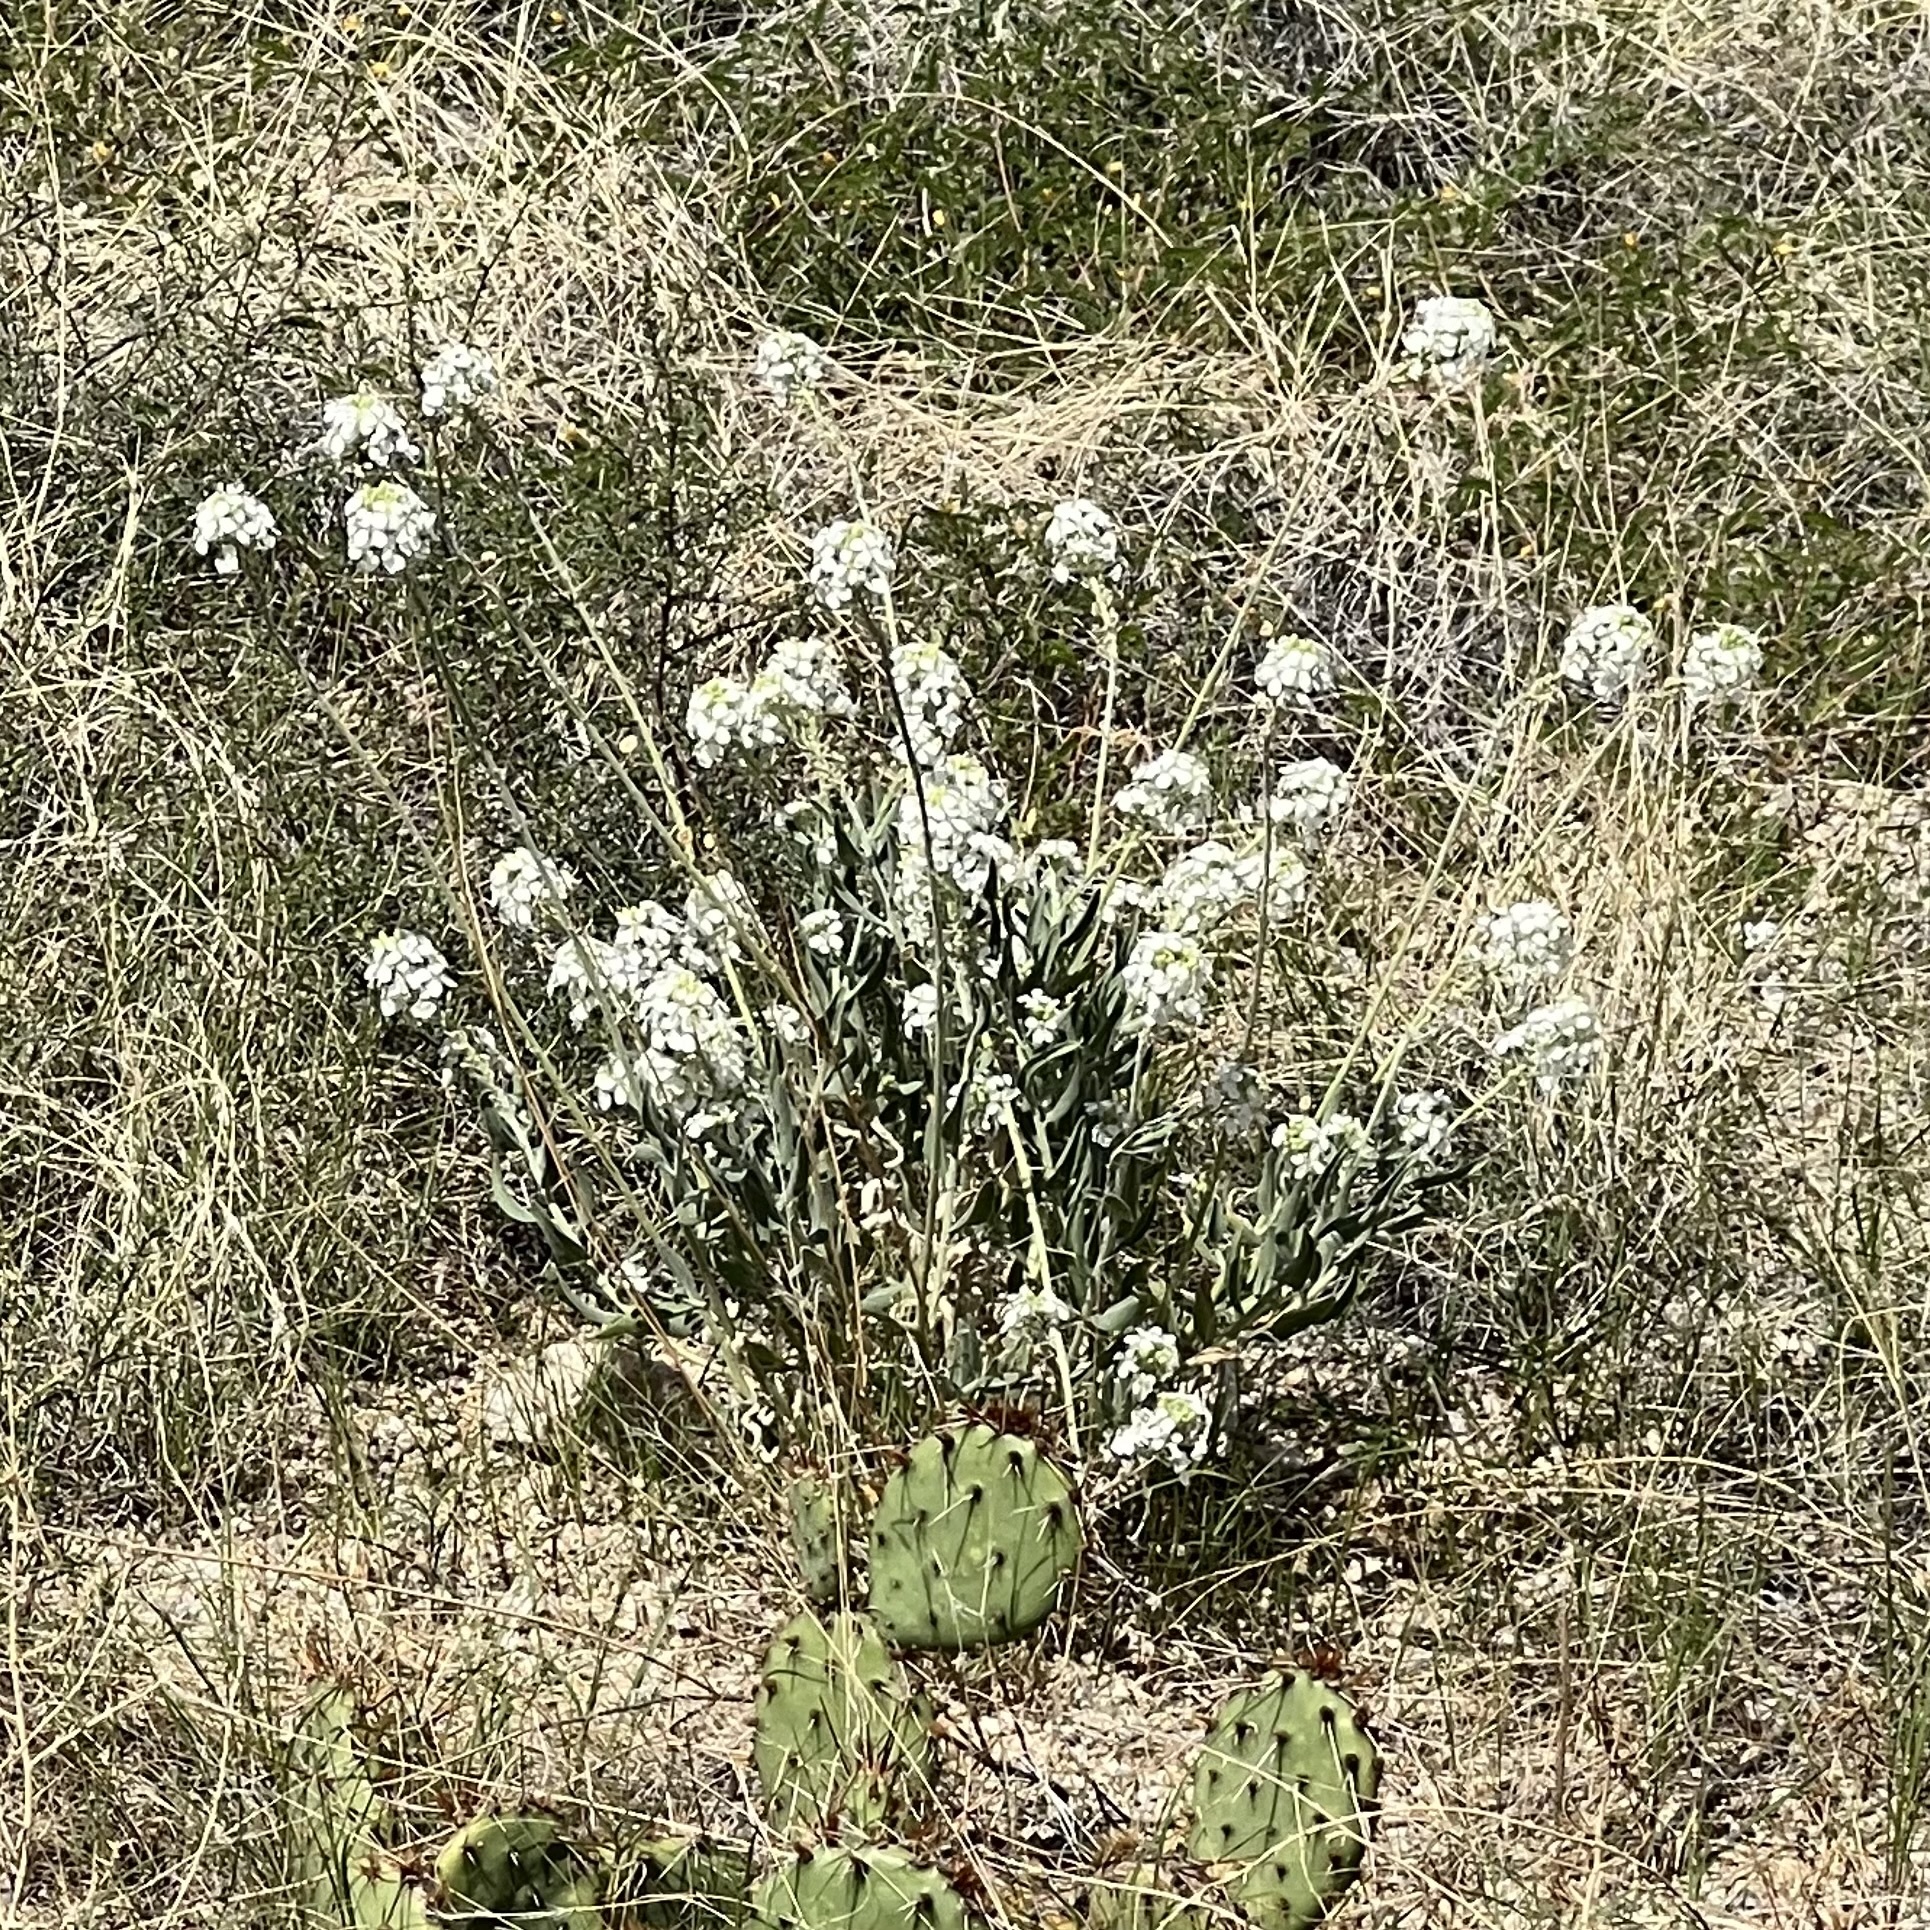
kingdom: Plantae
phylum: Tracheophyta
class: Magnoliopsida
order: Brassicales
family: Brassicaceae
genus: Dimorphocarpa
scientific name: Dimorphocarpa wislizenii
